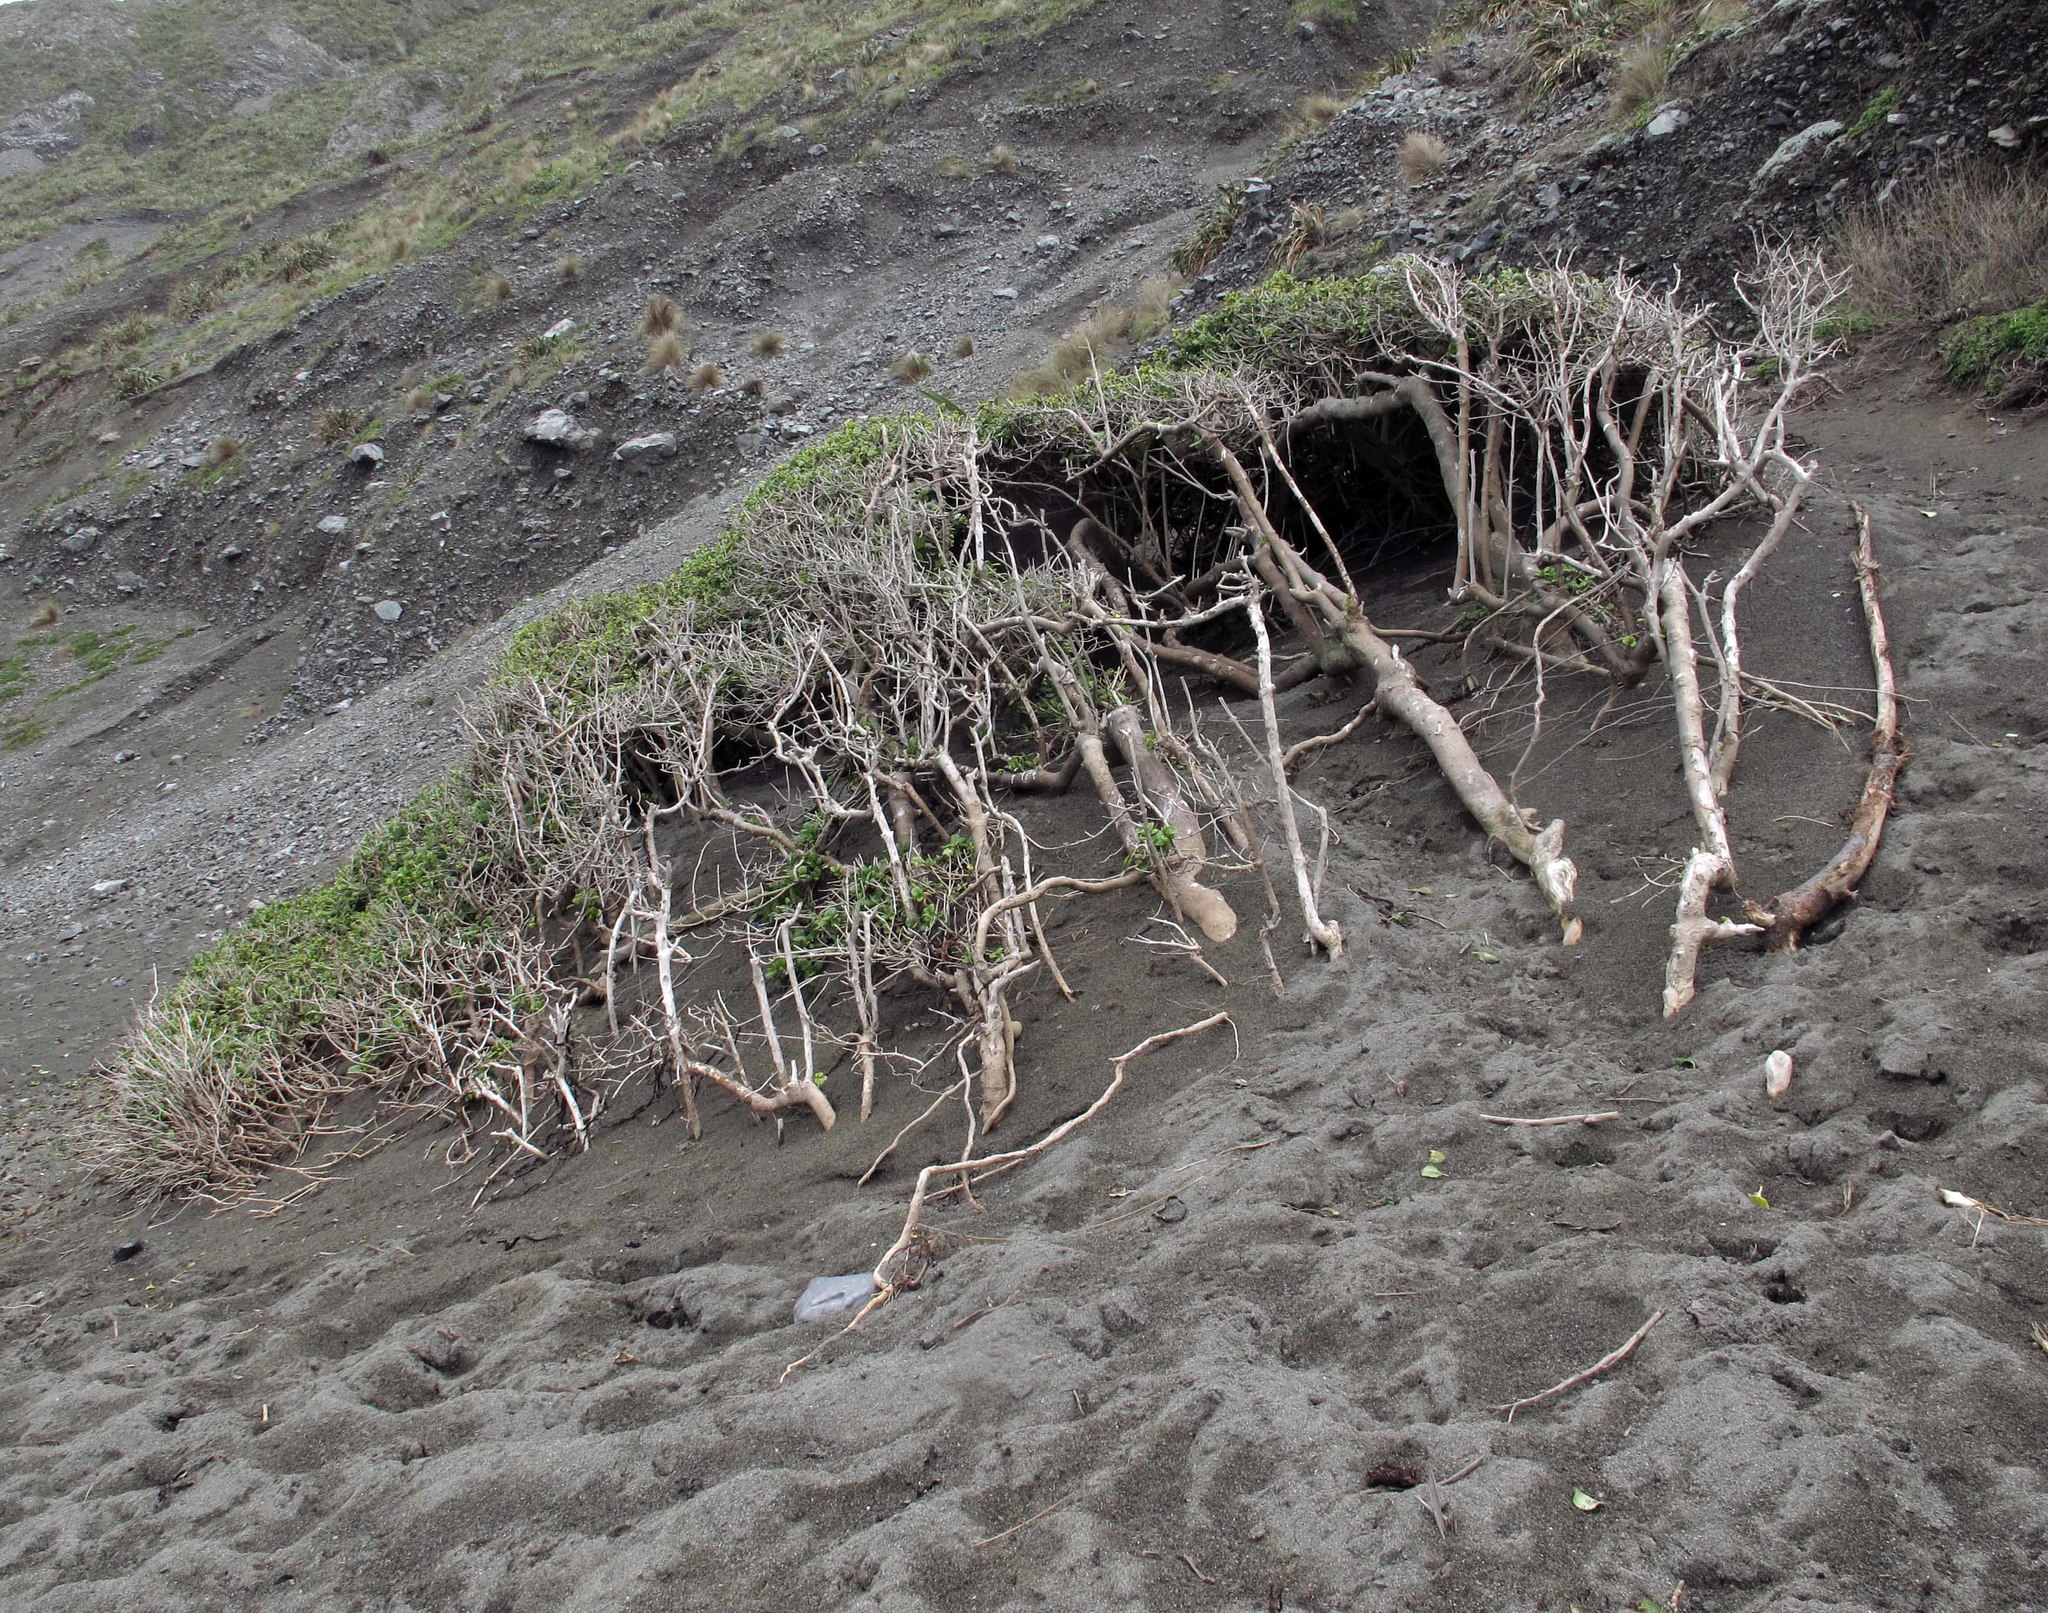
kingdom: Plantae
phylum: Tracheophyta
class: Magnoliopsida
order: Gentianales
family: Rubiaceae
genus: Coprosma
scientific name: Coprosma repens
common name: Tree bedstraw
